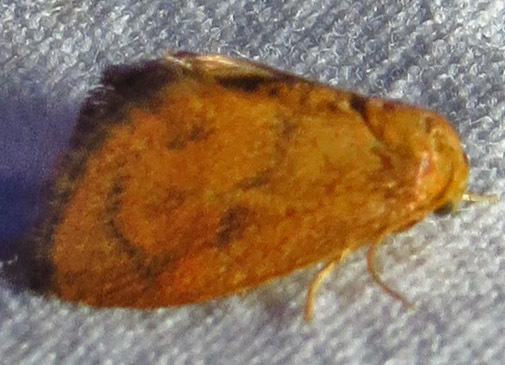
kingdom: Animalia
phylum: Arthropoda
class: Insecta
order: Lepidoptera
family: Limacodidae
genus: Heterogenea
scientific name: Heterogenea shurtleffi
